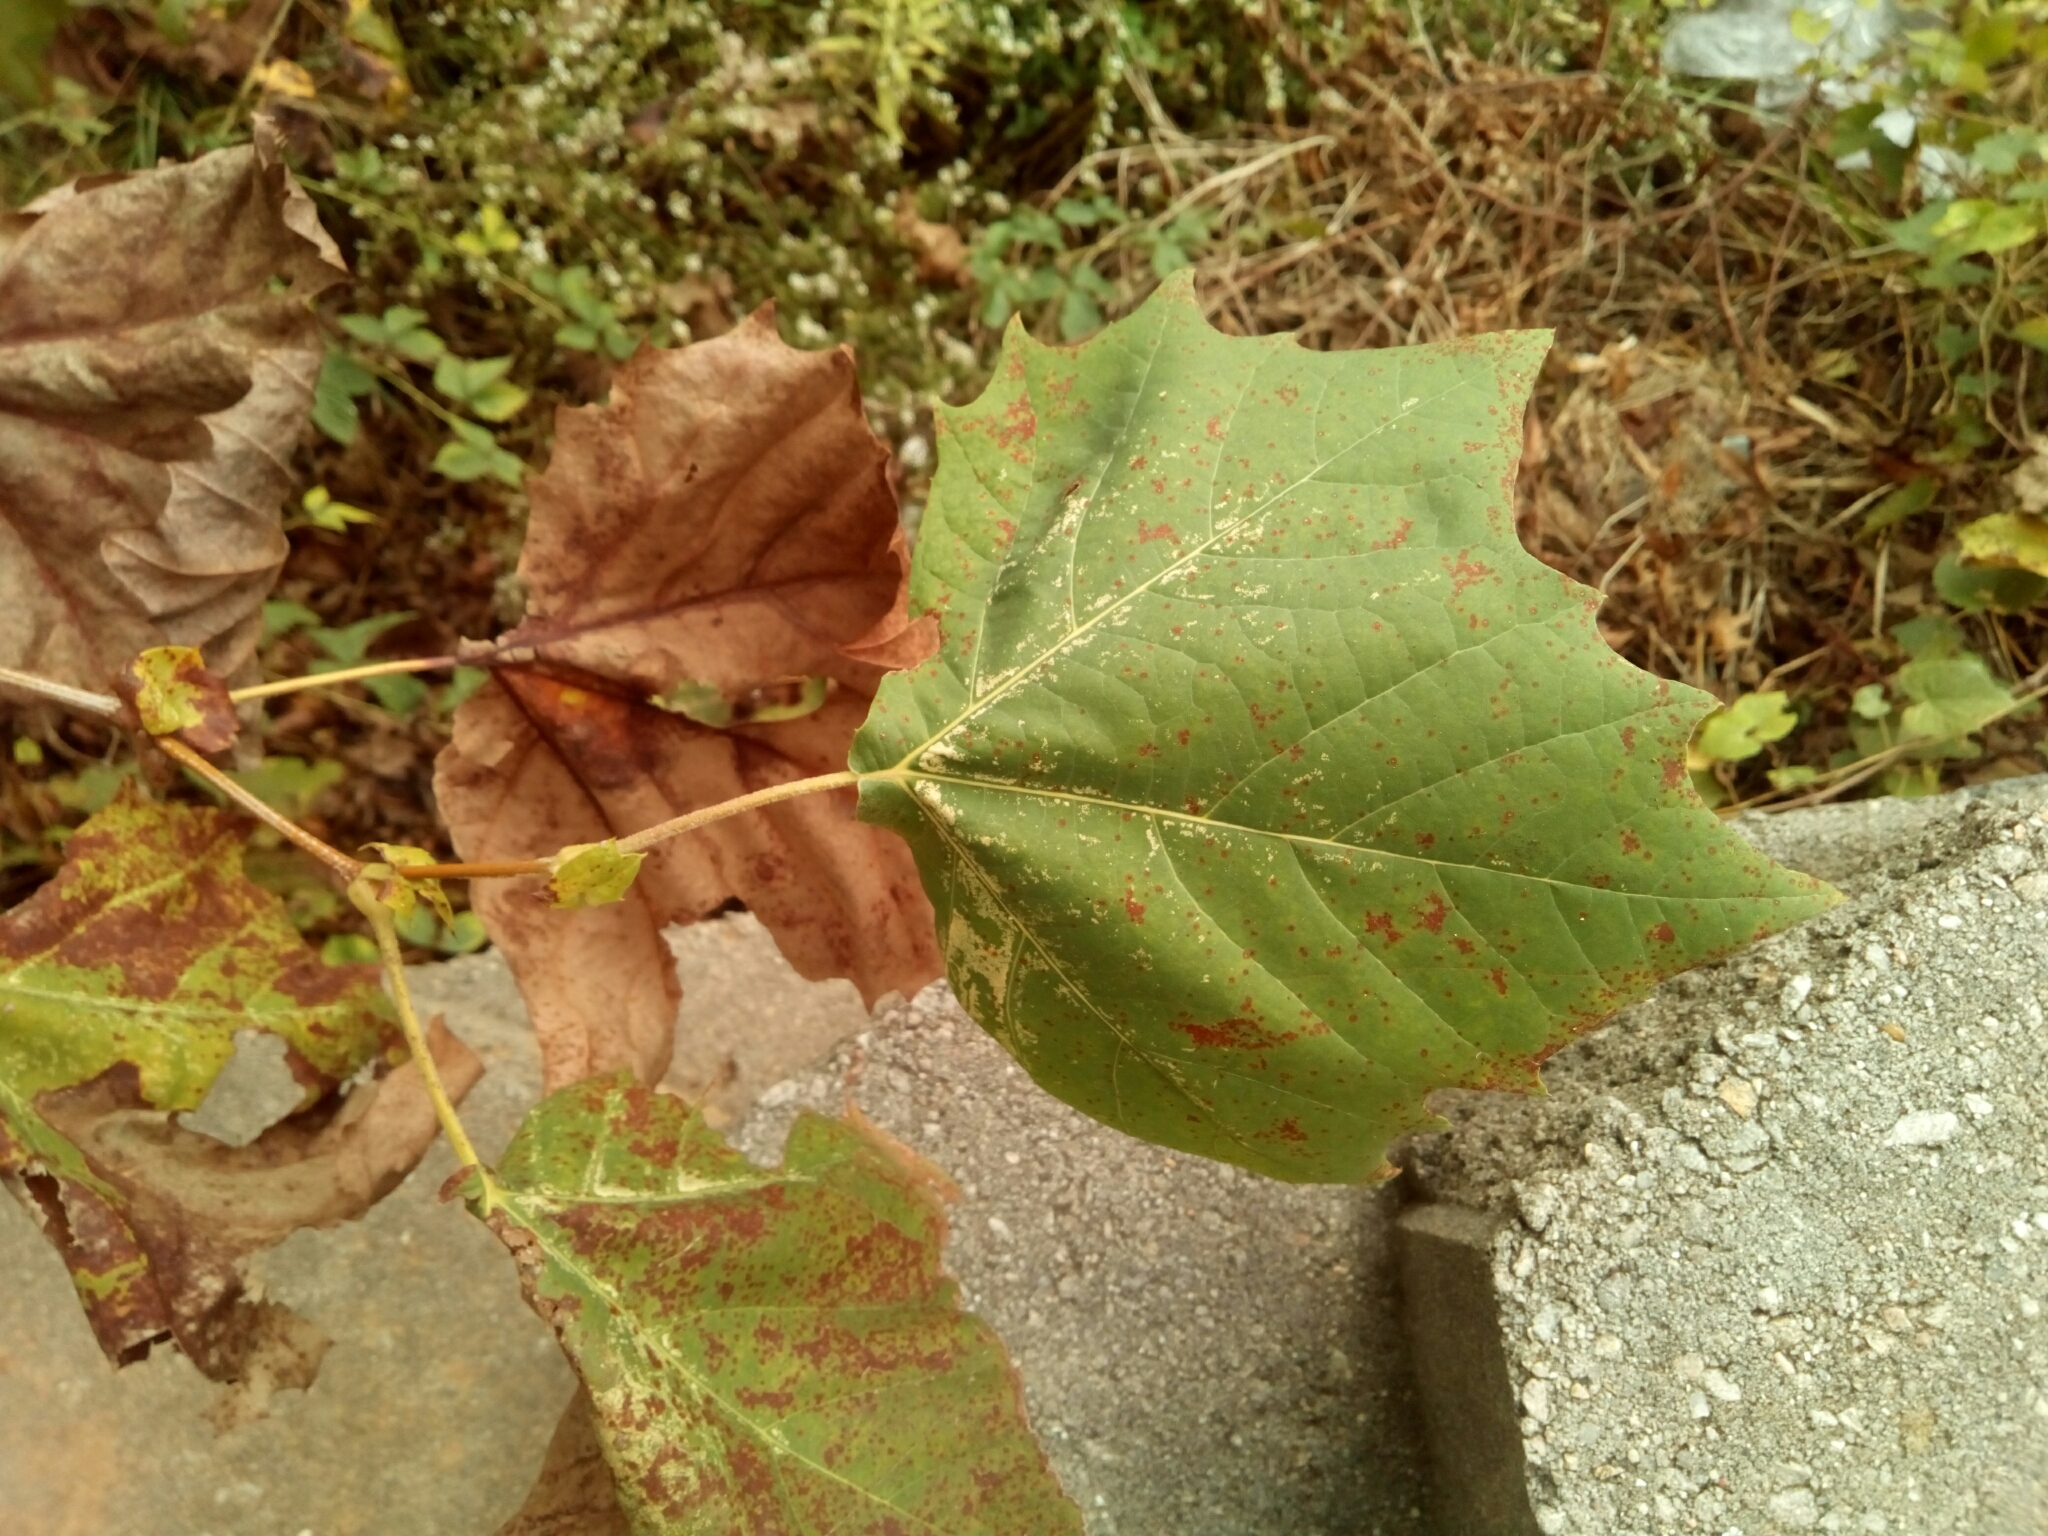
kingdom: Plantae
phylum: Tracheophyta
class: Magnoliopsida
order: Proteales
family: Platanaceae
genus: Platanus
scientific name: Platanus occidentalis
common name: American sycamore
